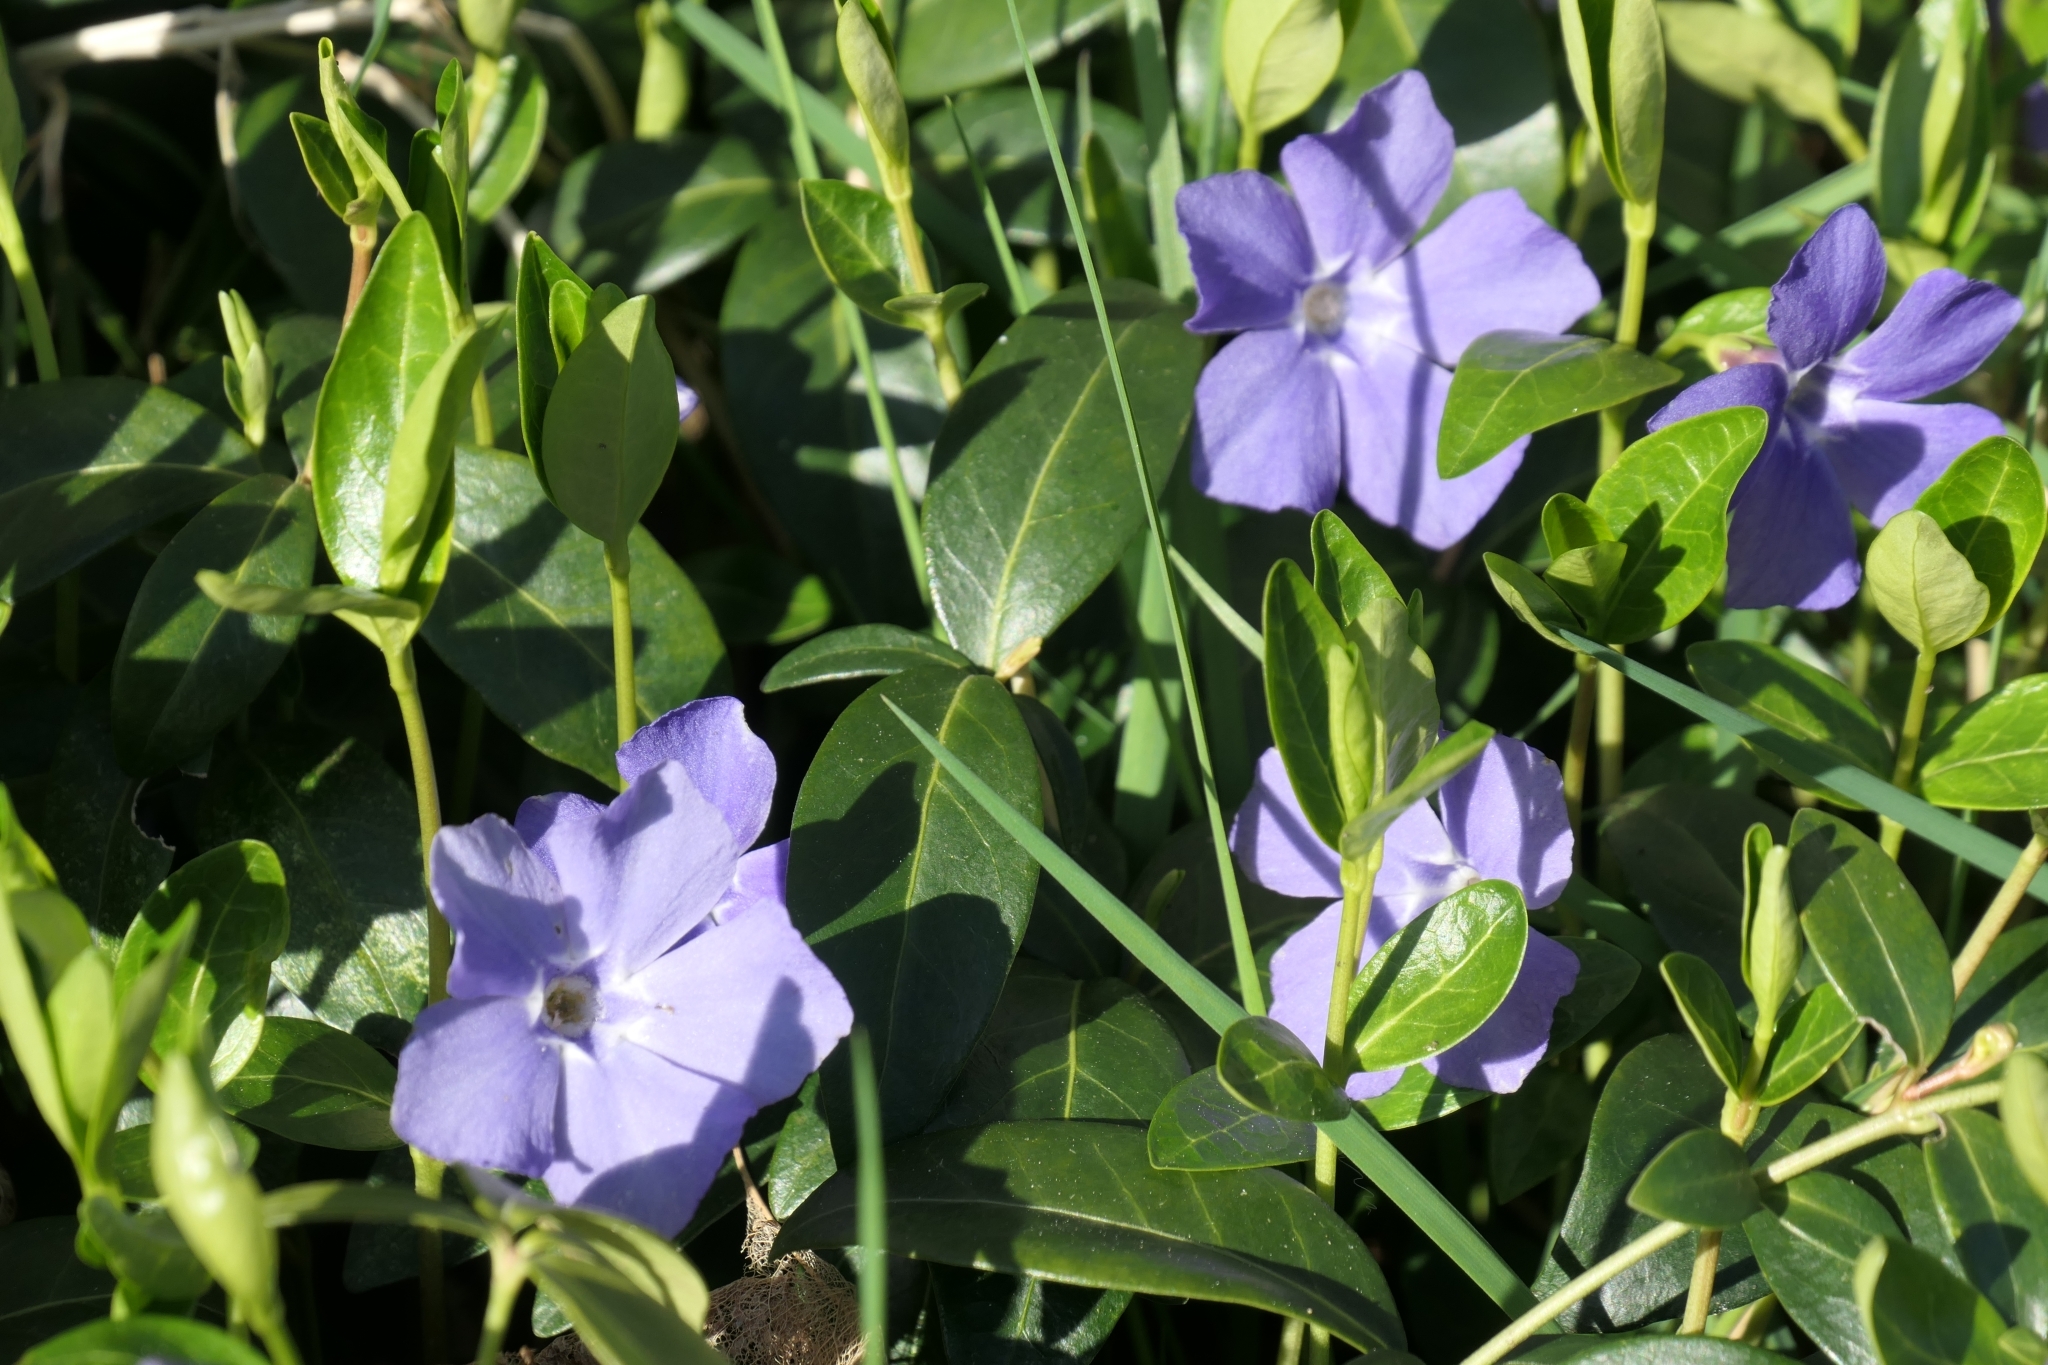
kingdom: Plantae
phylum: Tracheophyta
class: Magnoliopsida
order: Gentianales
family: Apocynaceae
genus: Vinca
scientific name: Vinca minor
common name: Lesser periwinkle
